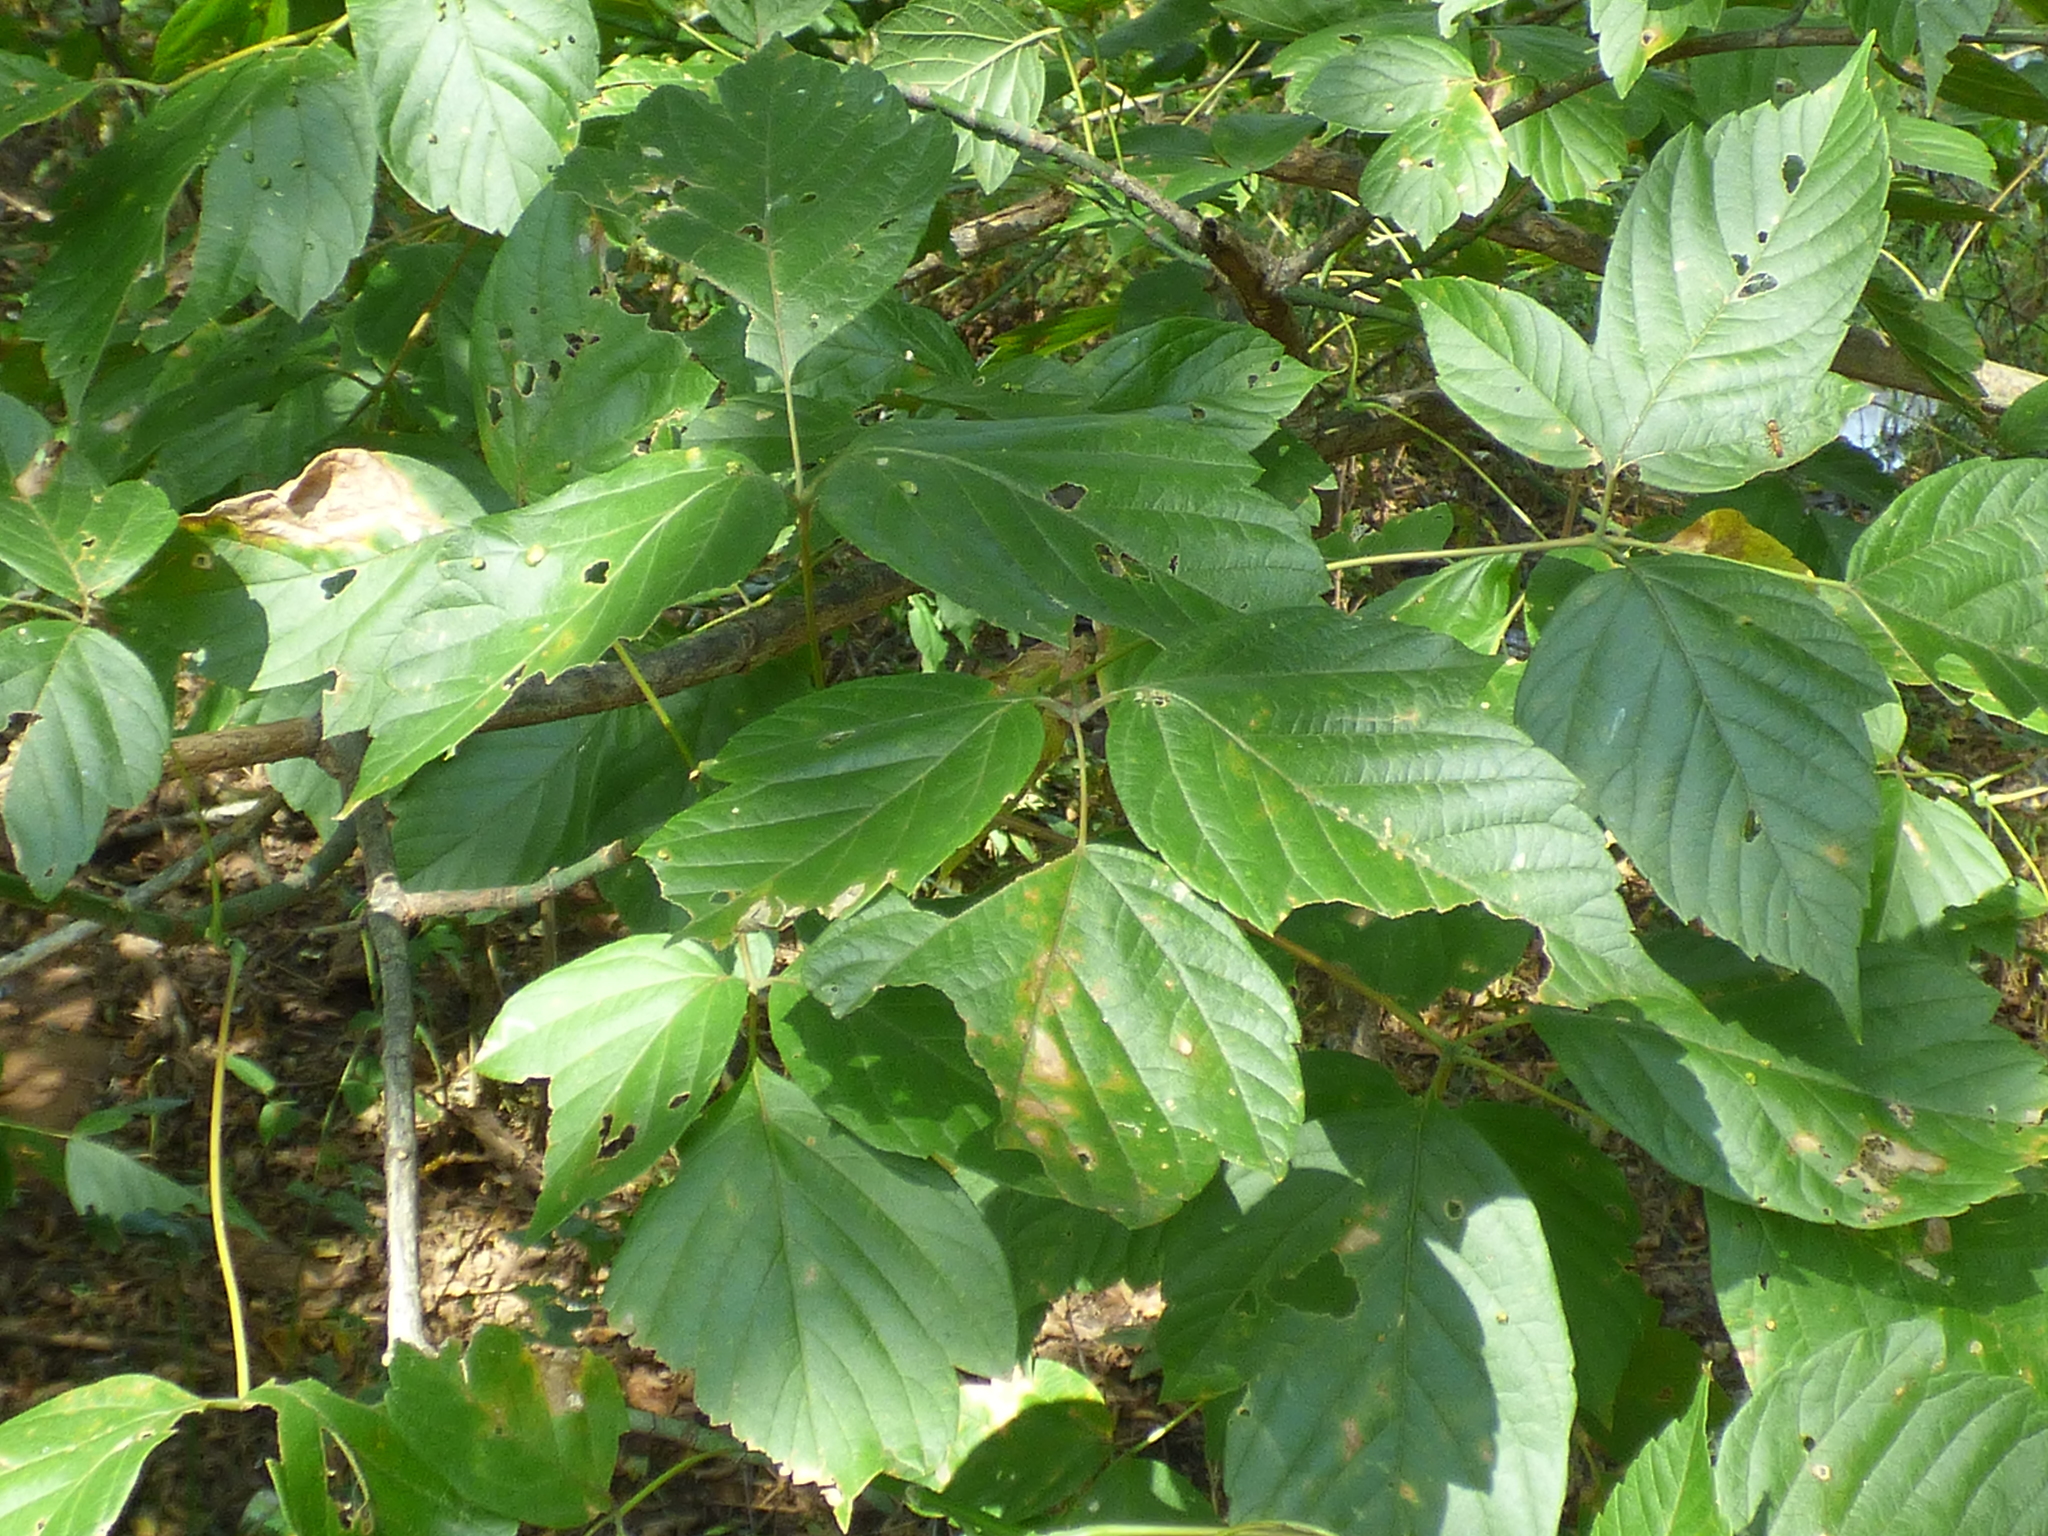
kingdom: Plantae
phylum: Tracheophyta
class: Magnoliopsida
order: Sapindales
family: Sapindaceae
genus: Acer
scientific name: Acer negundo
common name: Ashleaf maple
